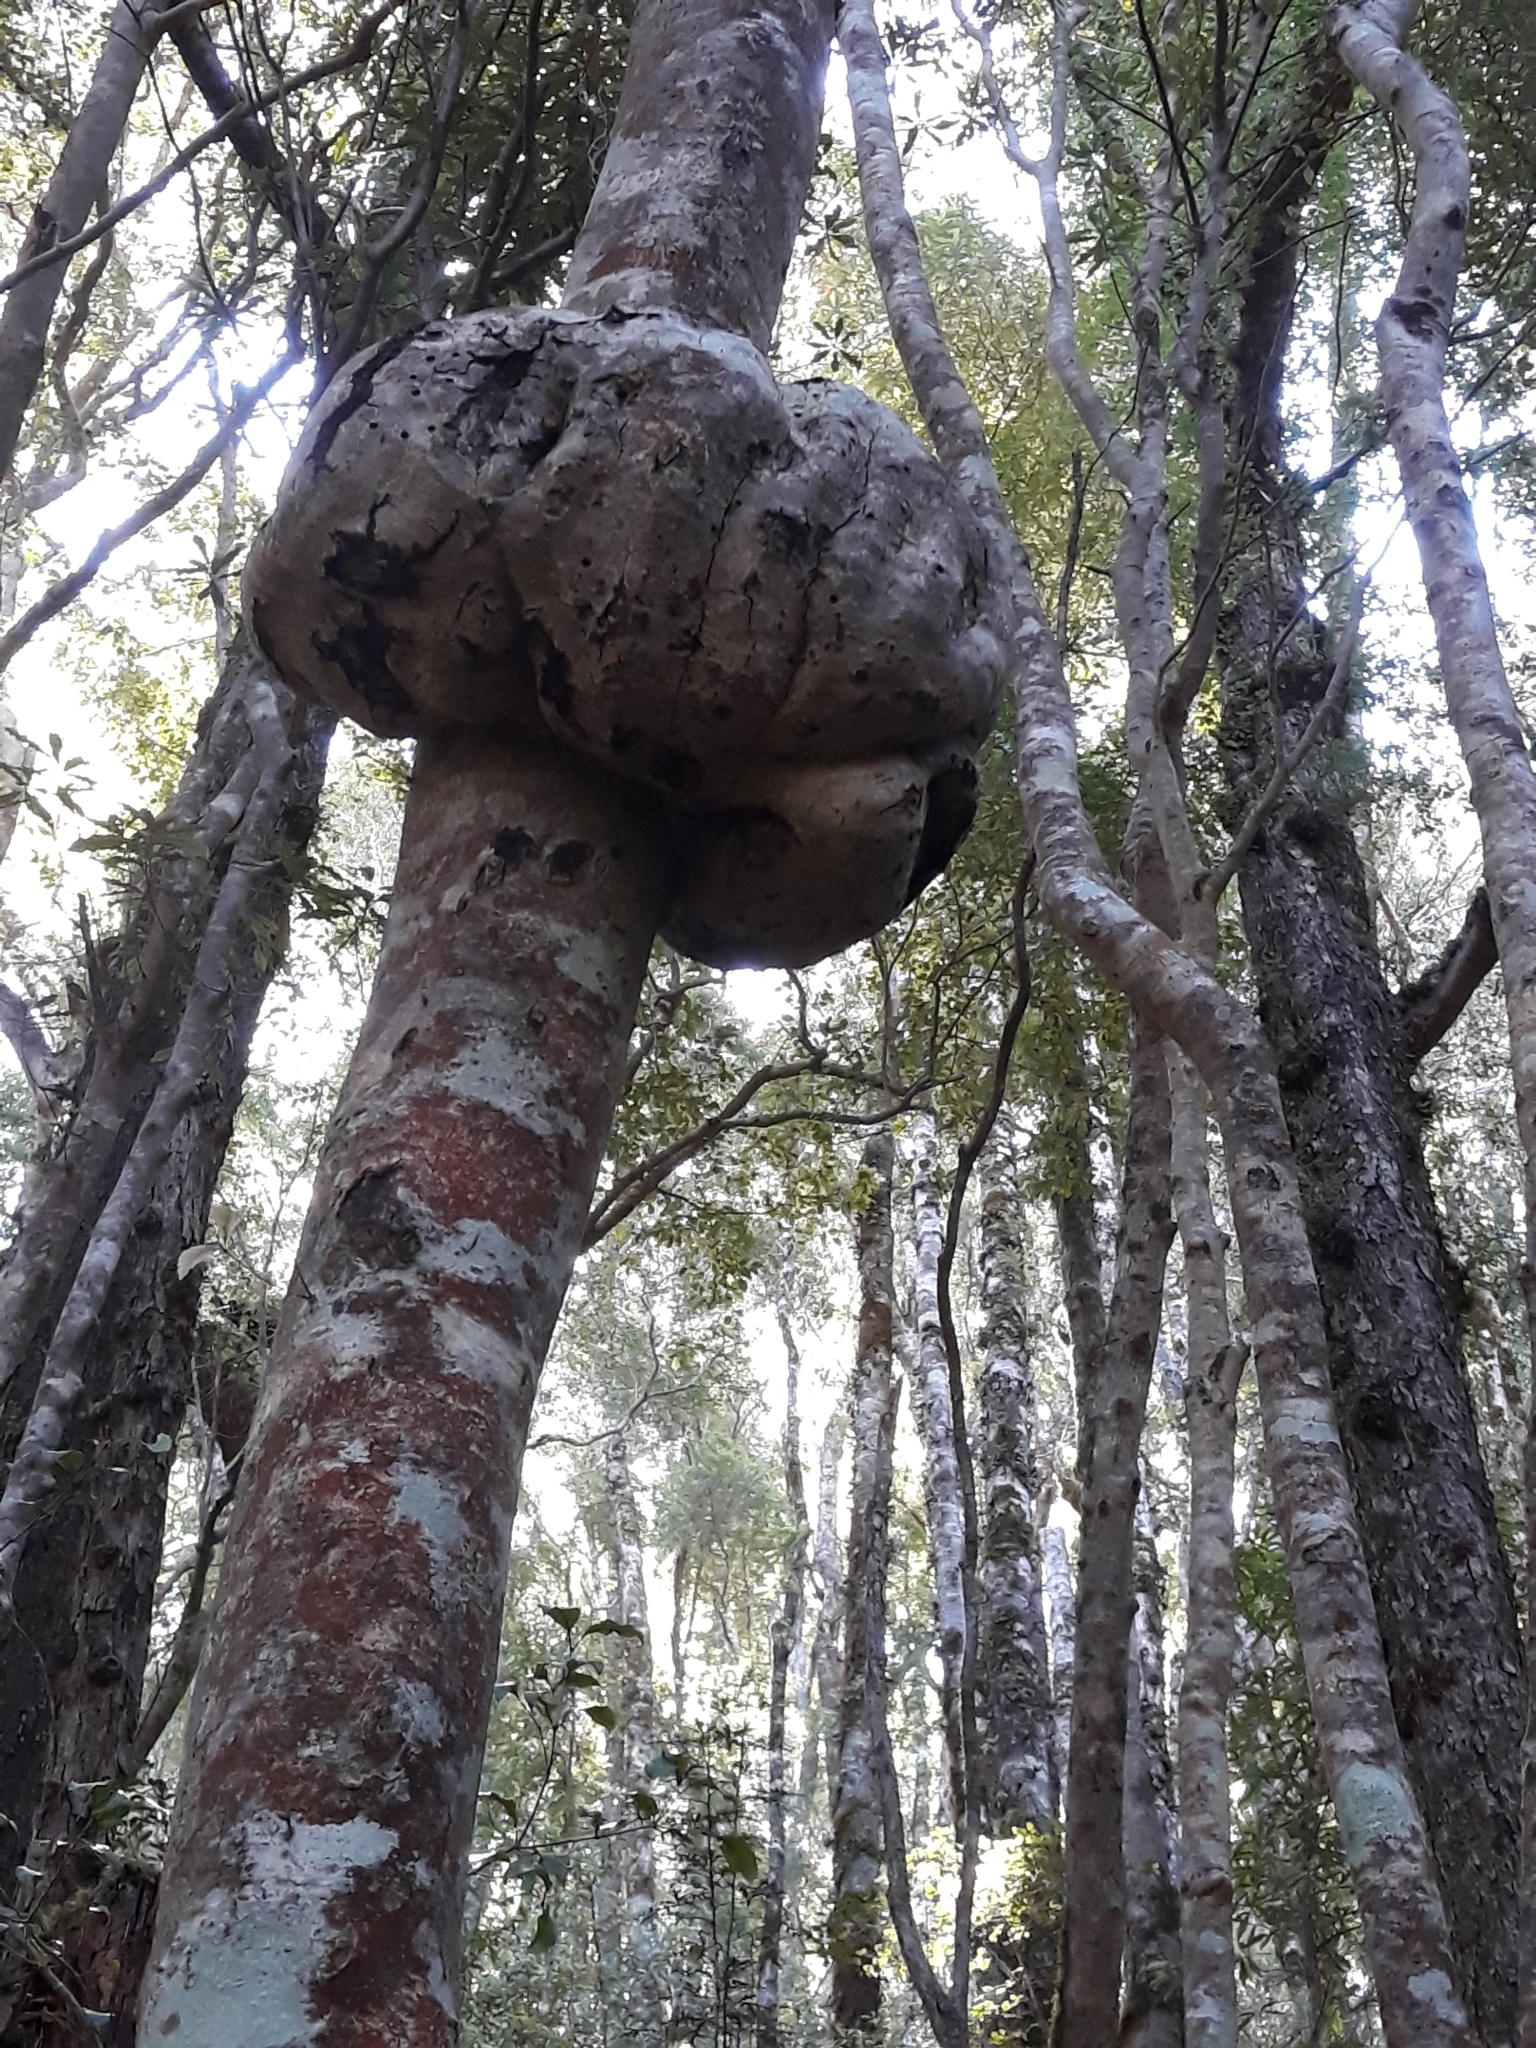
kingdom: Fungi
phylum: Ascomycota
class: Leotiomycetes
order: Cyttariales
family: Cyttariaceae
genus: Cyttaria
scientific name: Cyttaria gunnii
